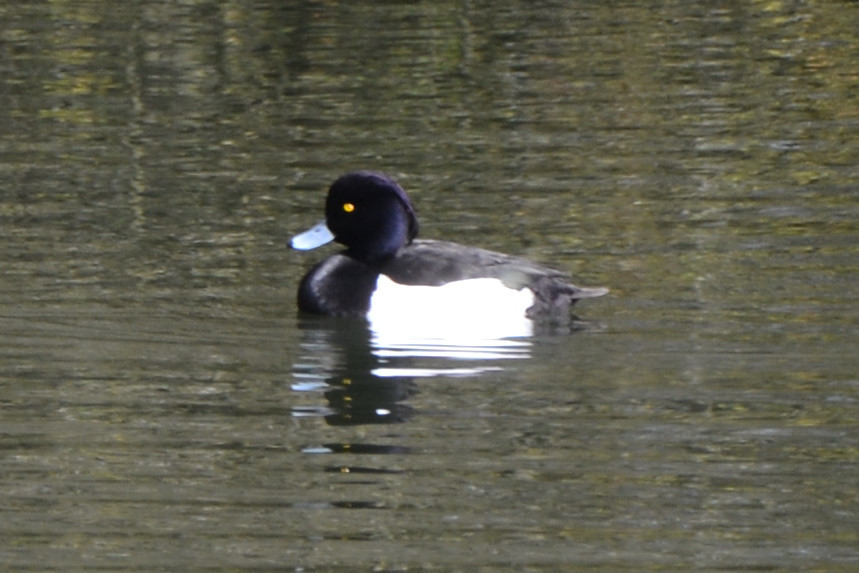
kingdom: Animalia
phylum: Chordata
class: Aves
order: Anseriformes
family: Anatidae
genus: Aythya
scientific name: Aythya fuligula
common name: Tufted duck
